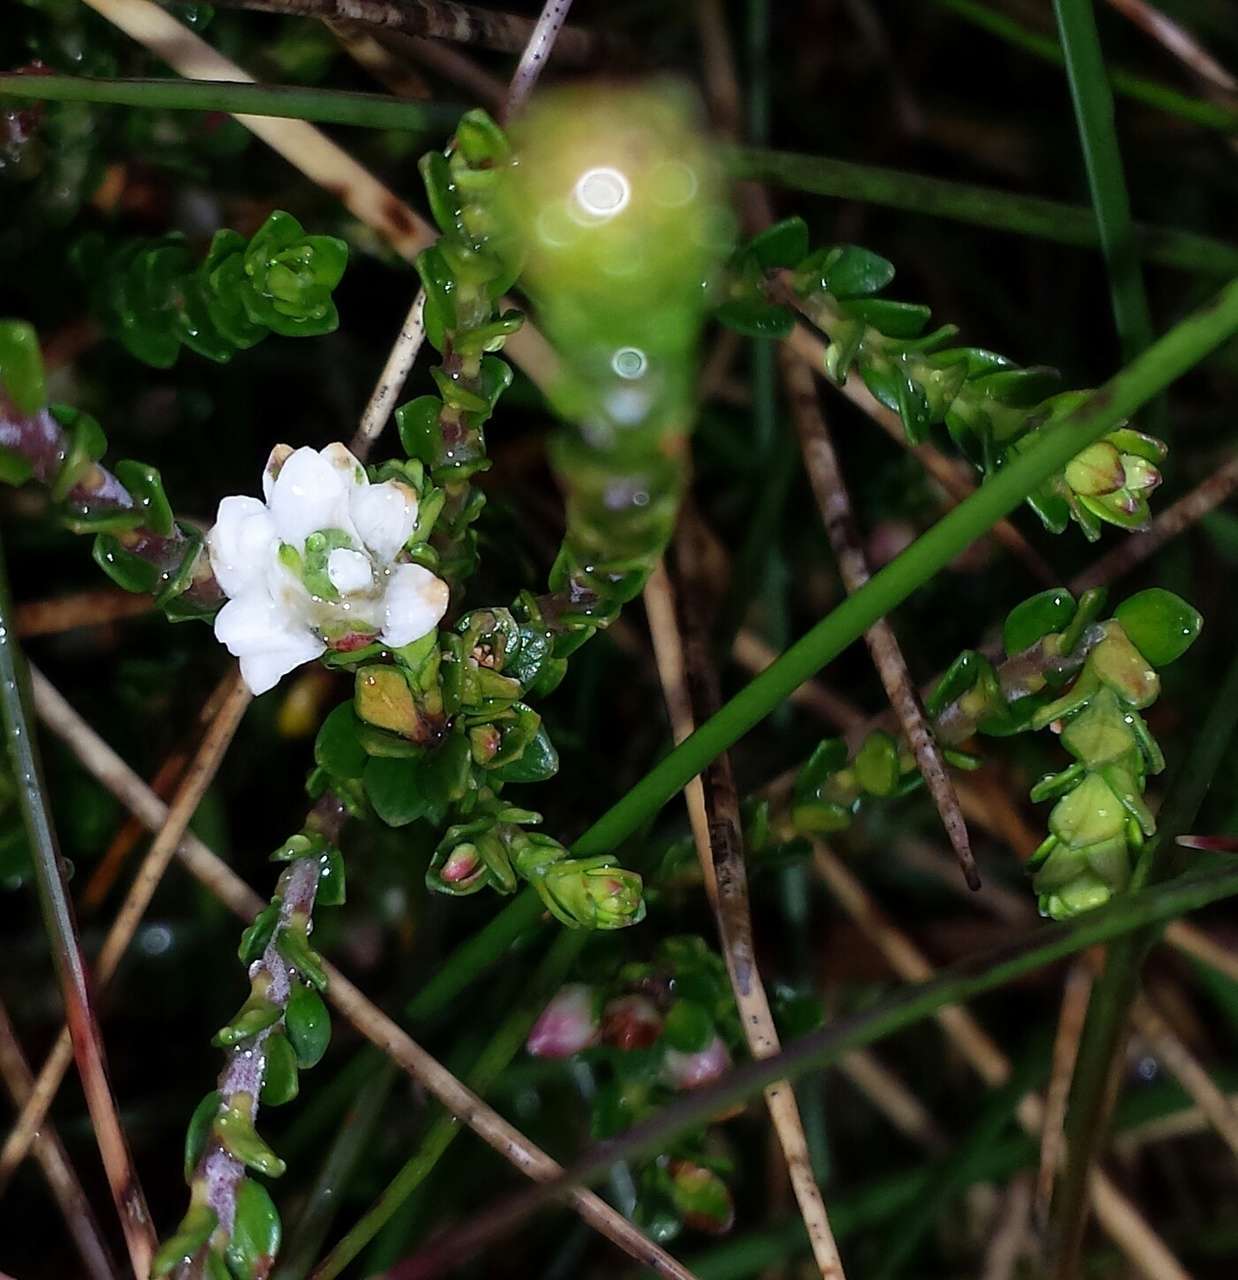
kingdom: Plantae
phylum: Tracheophyta
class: Magnoliopsida
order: Ericales
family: Ericaceae
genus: Epacris
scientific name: Epacris celata
